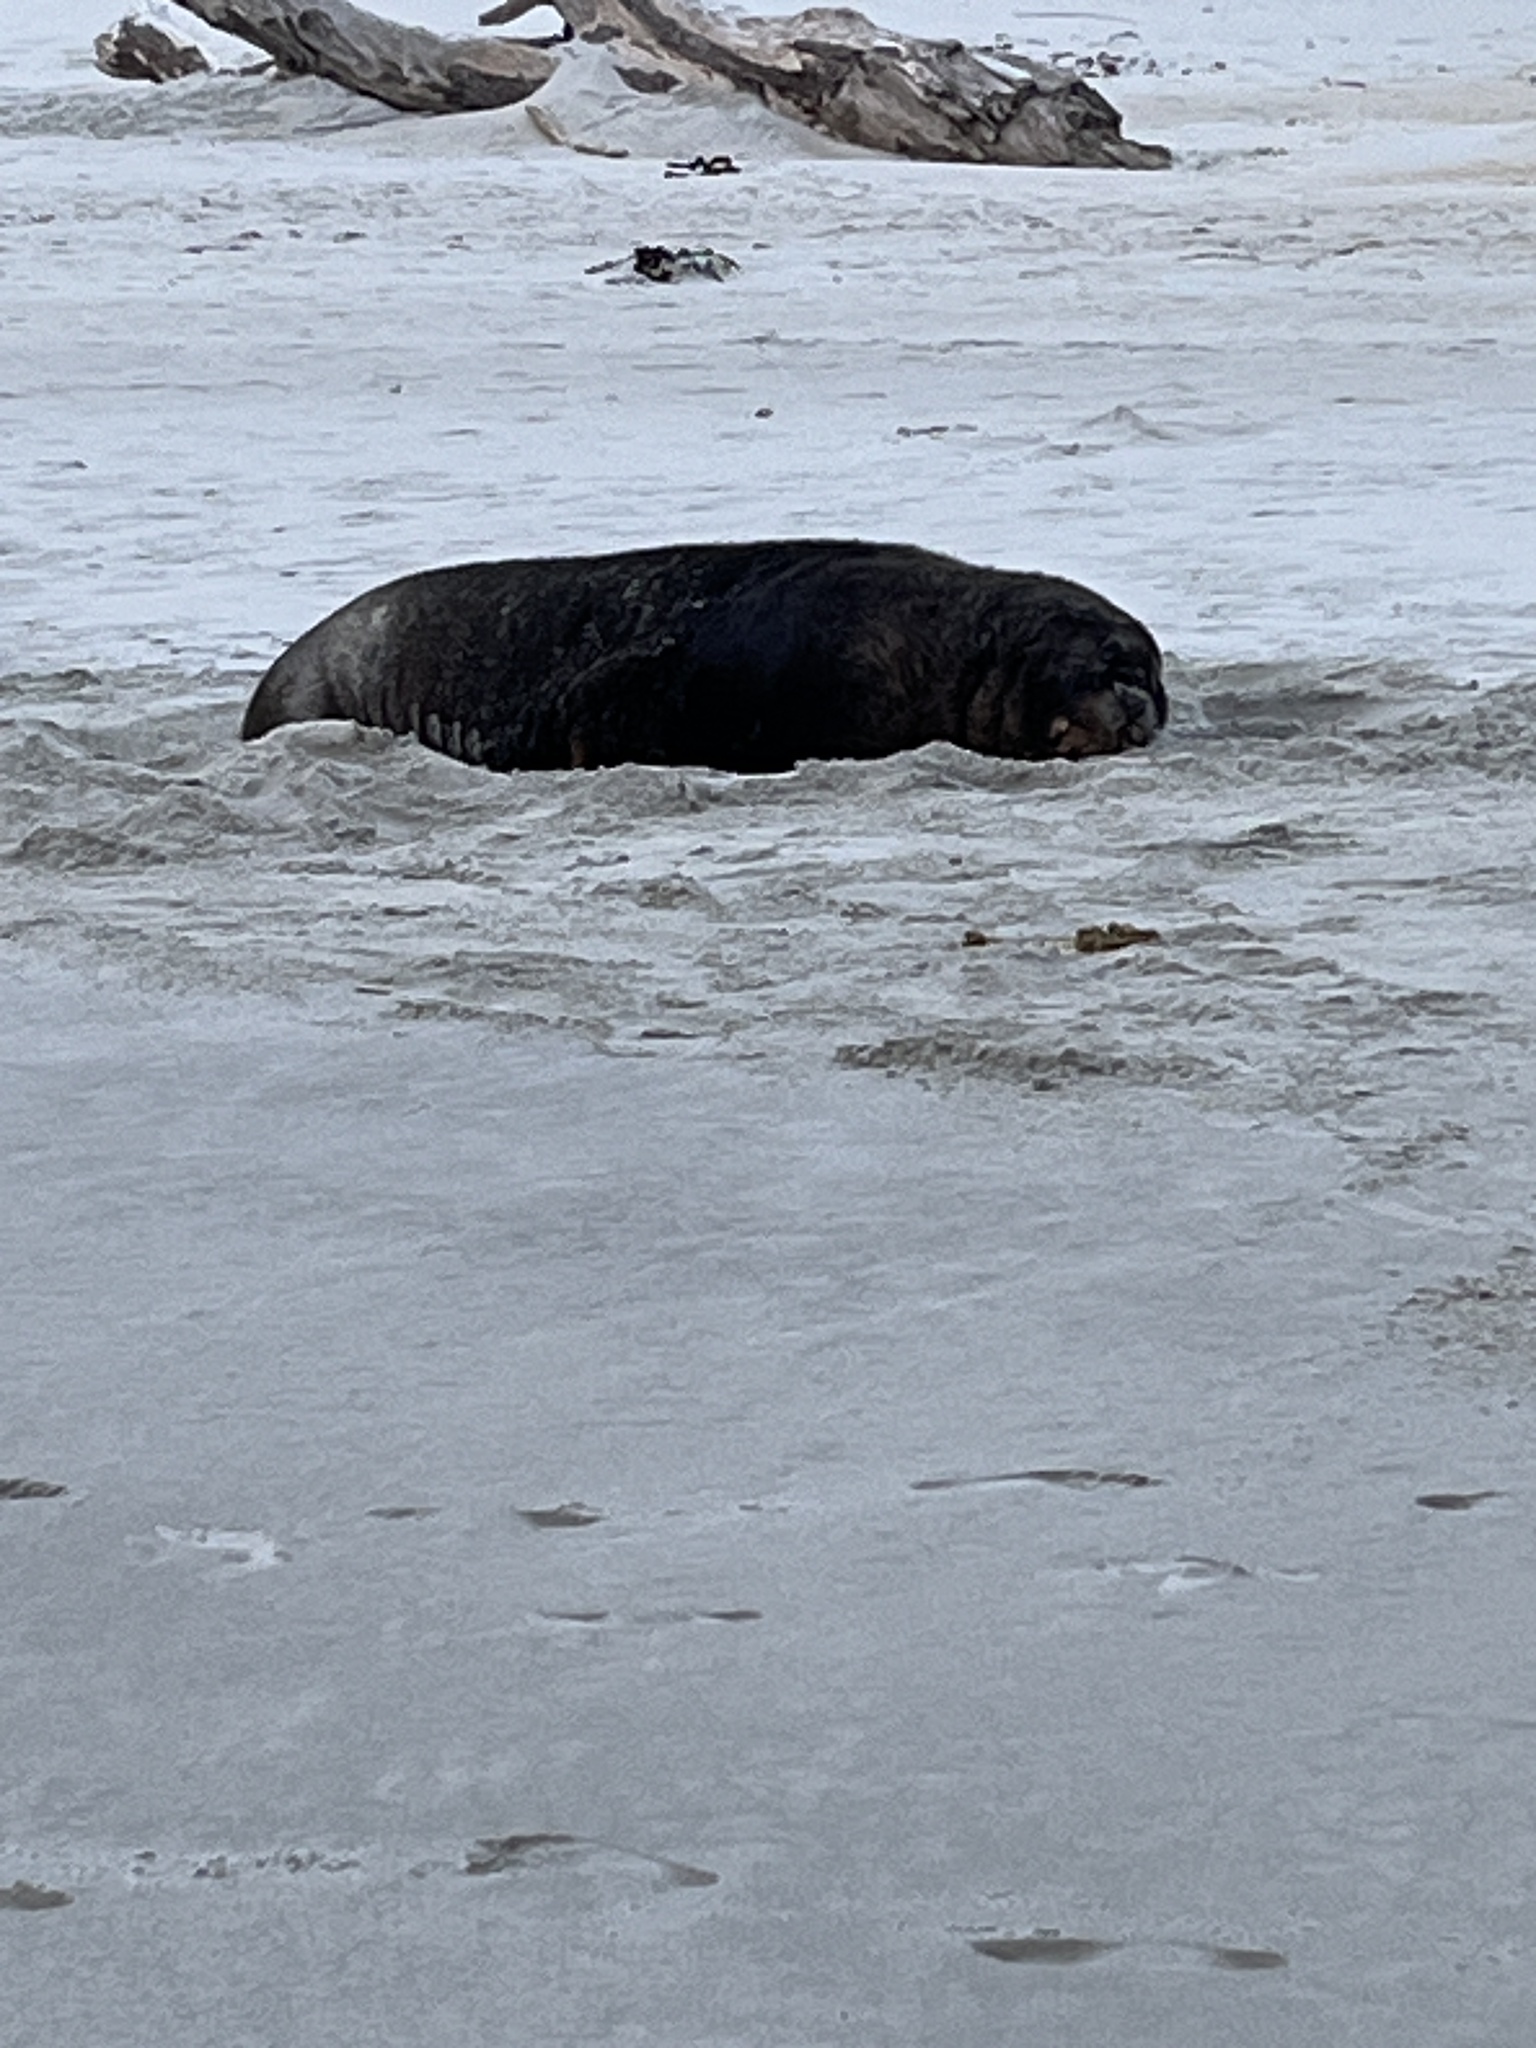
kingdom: Animalia
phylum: Chordata
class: Mammalia
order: Carnivora
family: Otariidae
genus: Phocarctos
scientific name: Phocarctos hookeri
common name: New zealand sea lion
